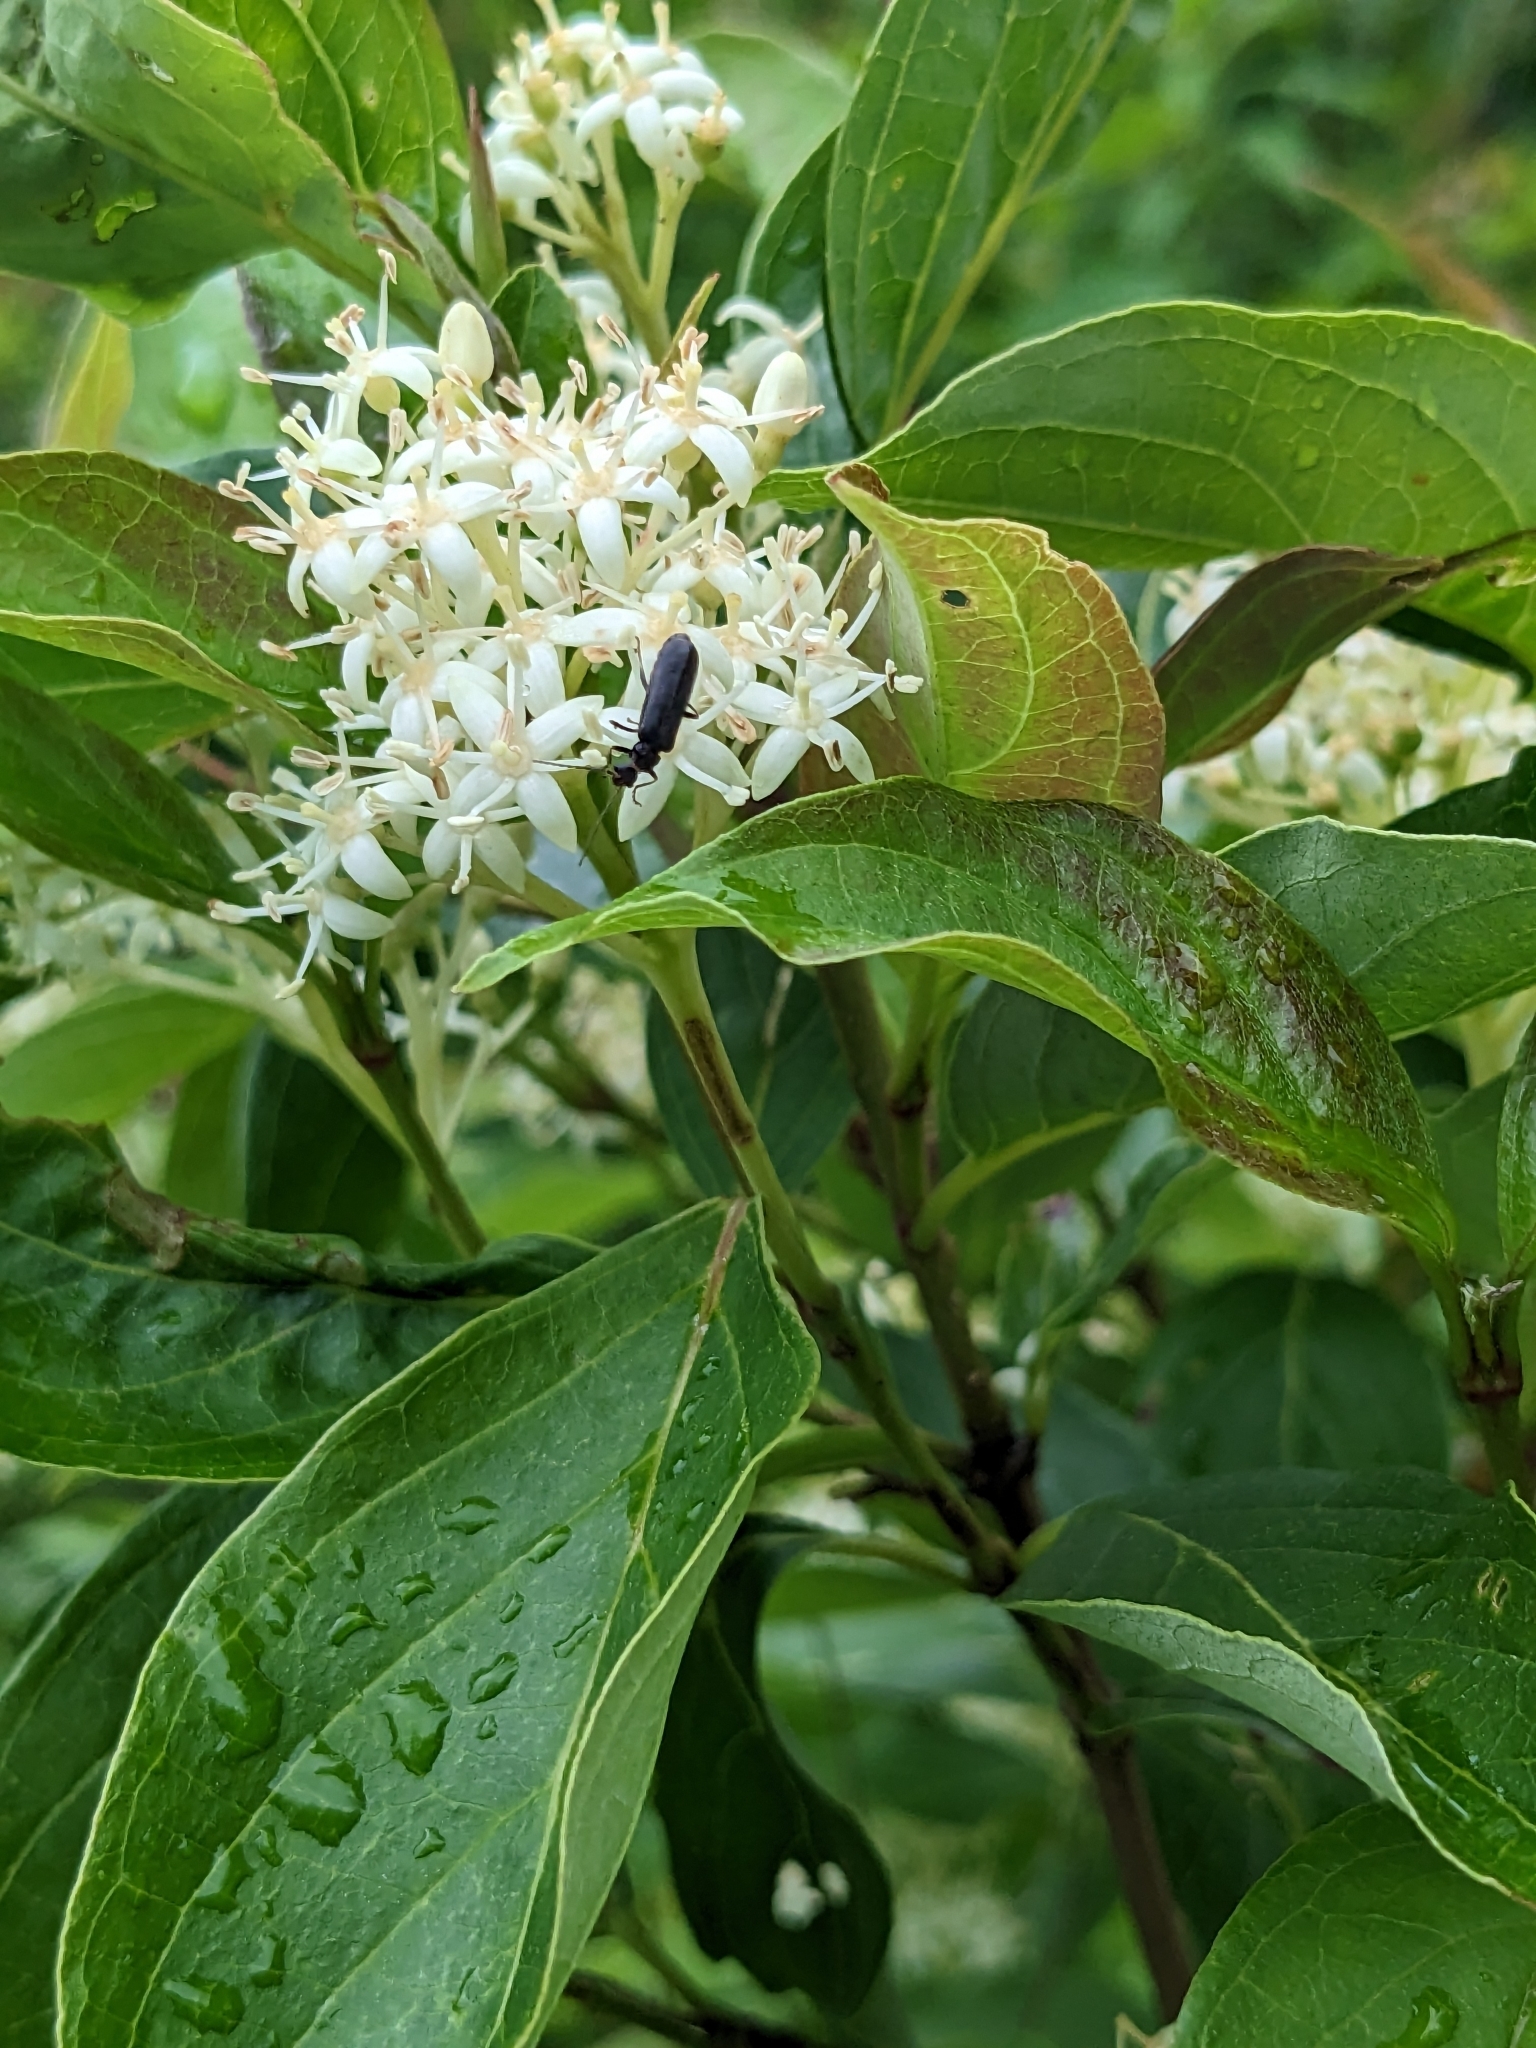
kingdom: Plantae
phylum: Tracheophyta
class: Magnoliopsida
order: Cornales
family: Cornaceae
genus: Cornus
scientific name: Cornus racemosa
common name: Panicled dogwood
